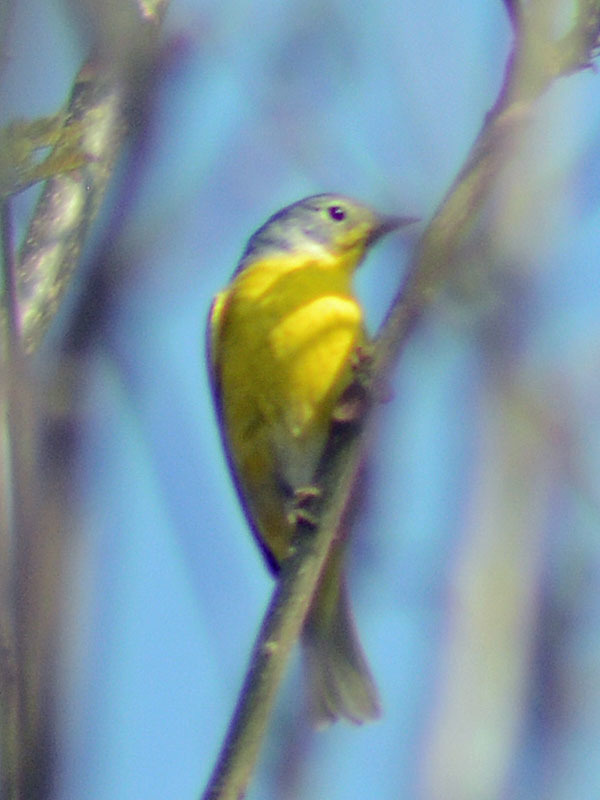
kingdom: Animalia
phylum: Chordata
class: Aves
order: Passeriformes
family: Parulidae
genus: Leiothlypis
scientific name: Leiothlypis ruficapilla
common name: Nashville warbler
